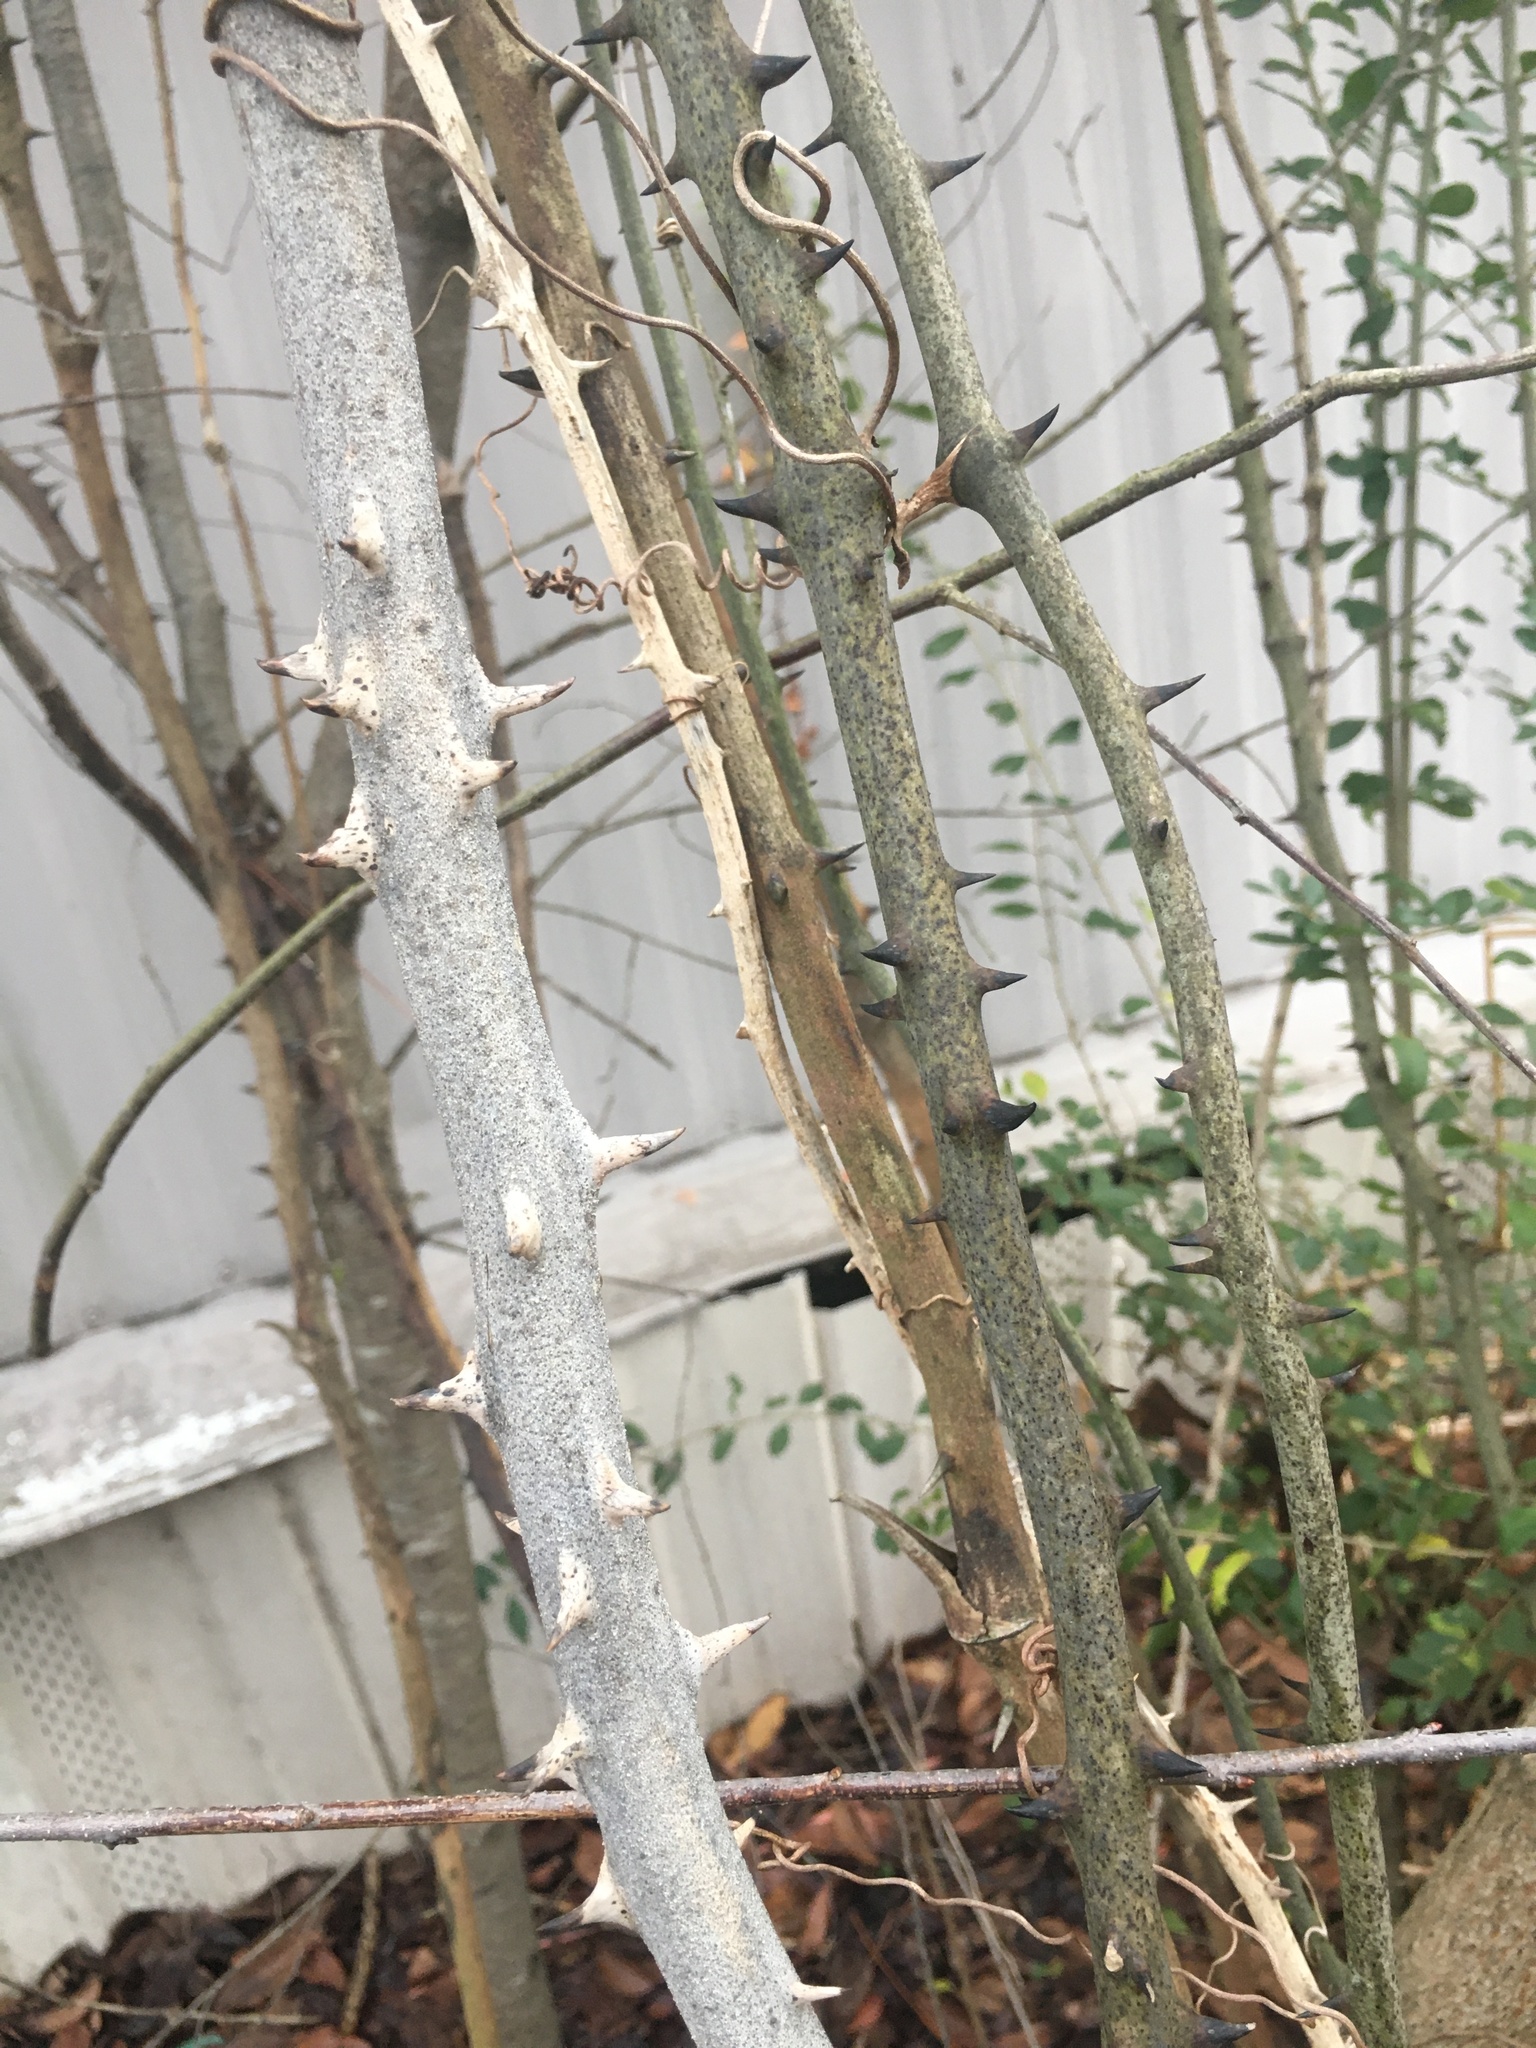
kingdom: Plantae
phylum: Tracheophyta
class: Liliopsida
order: Liliales
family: Smilacaceae
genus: Smilax
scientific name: Smilax maritima
